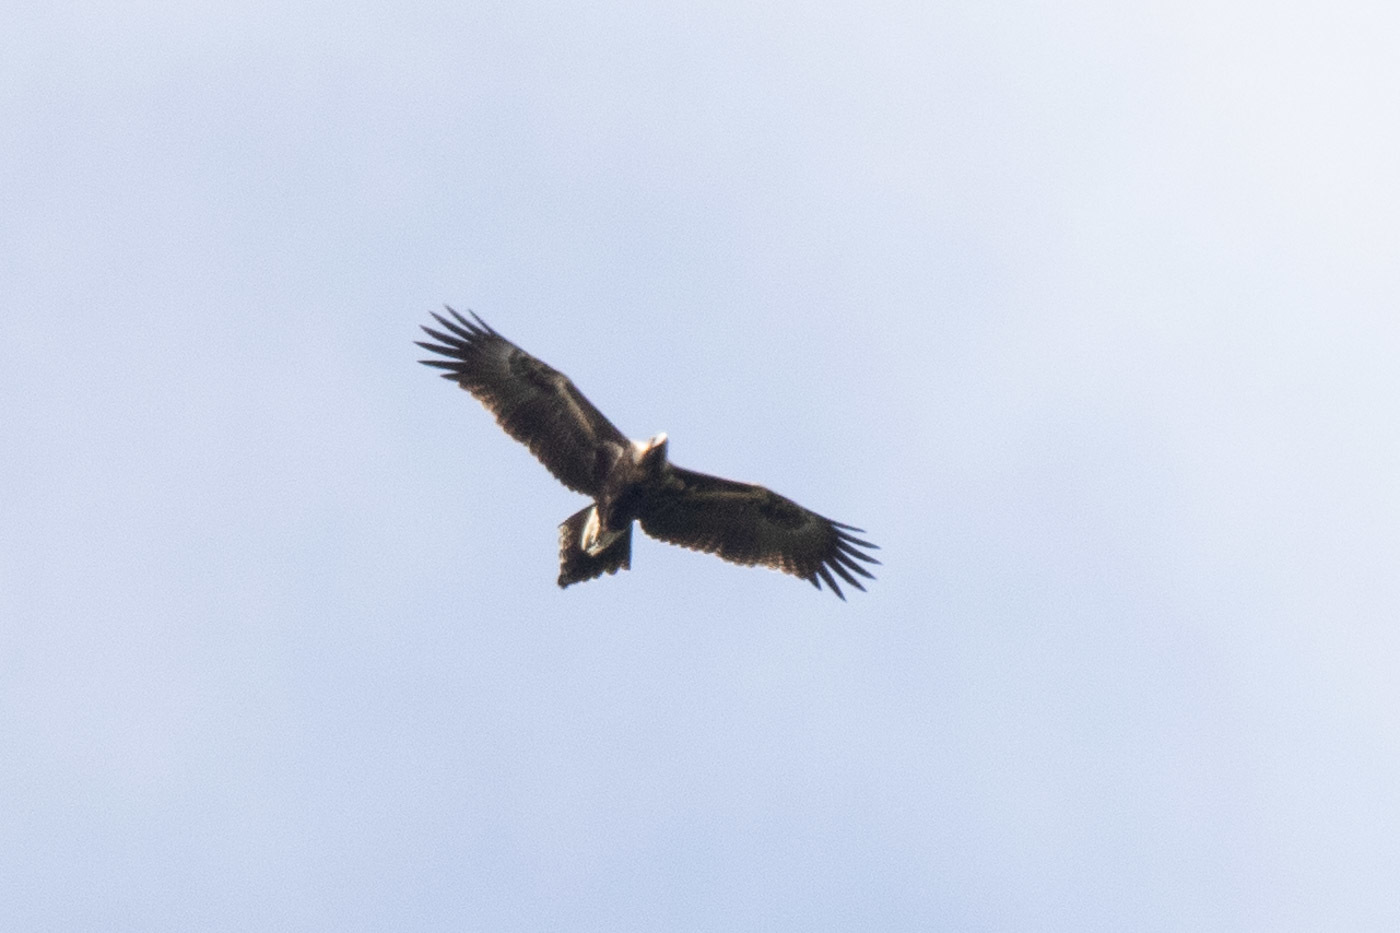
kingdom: Animalia
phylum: Chordata
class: Aves
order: Accipitriformes
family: Accipitridae
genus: Aquila
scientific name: Aquila audax
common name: Wedge-tailed eagle
